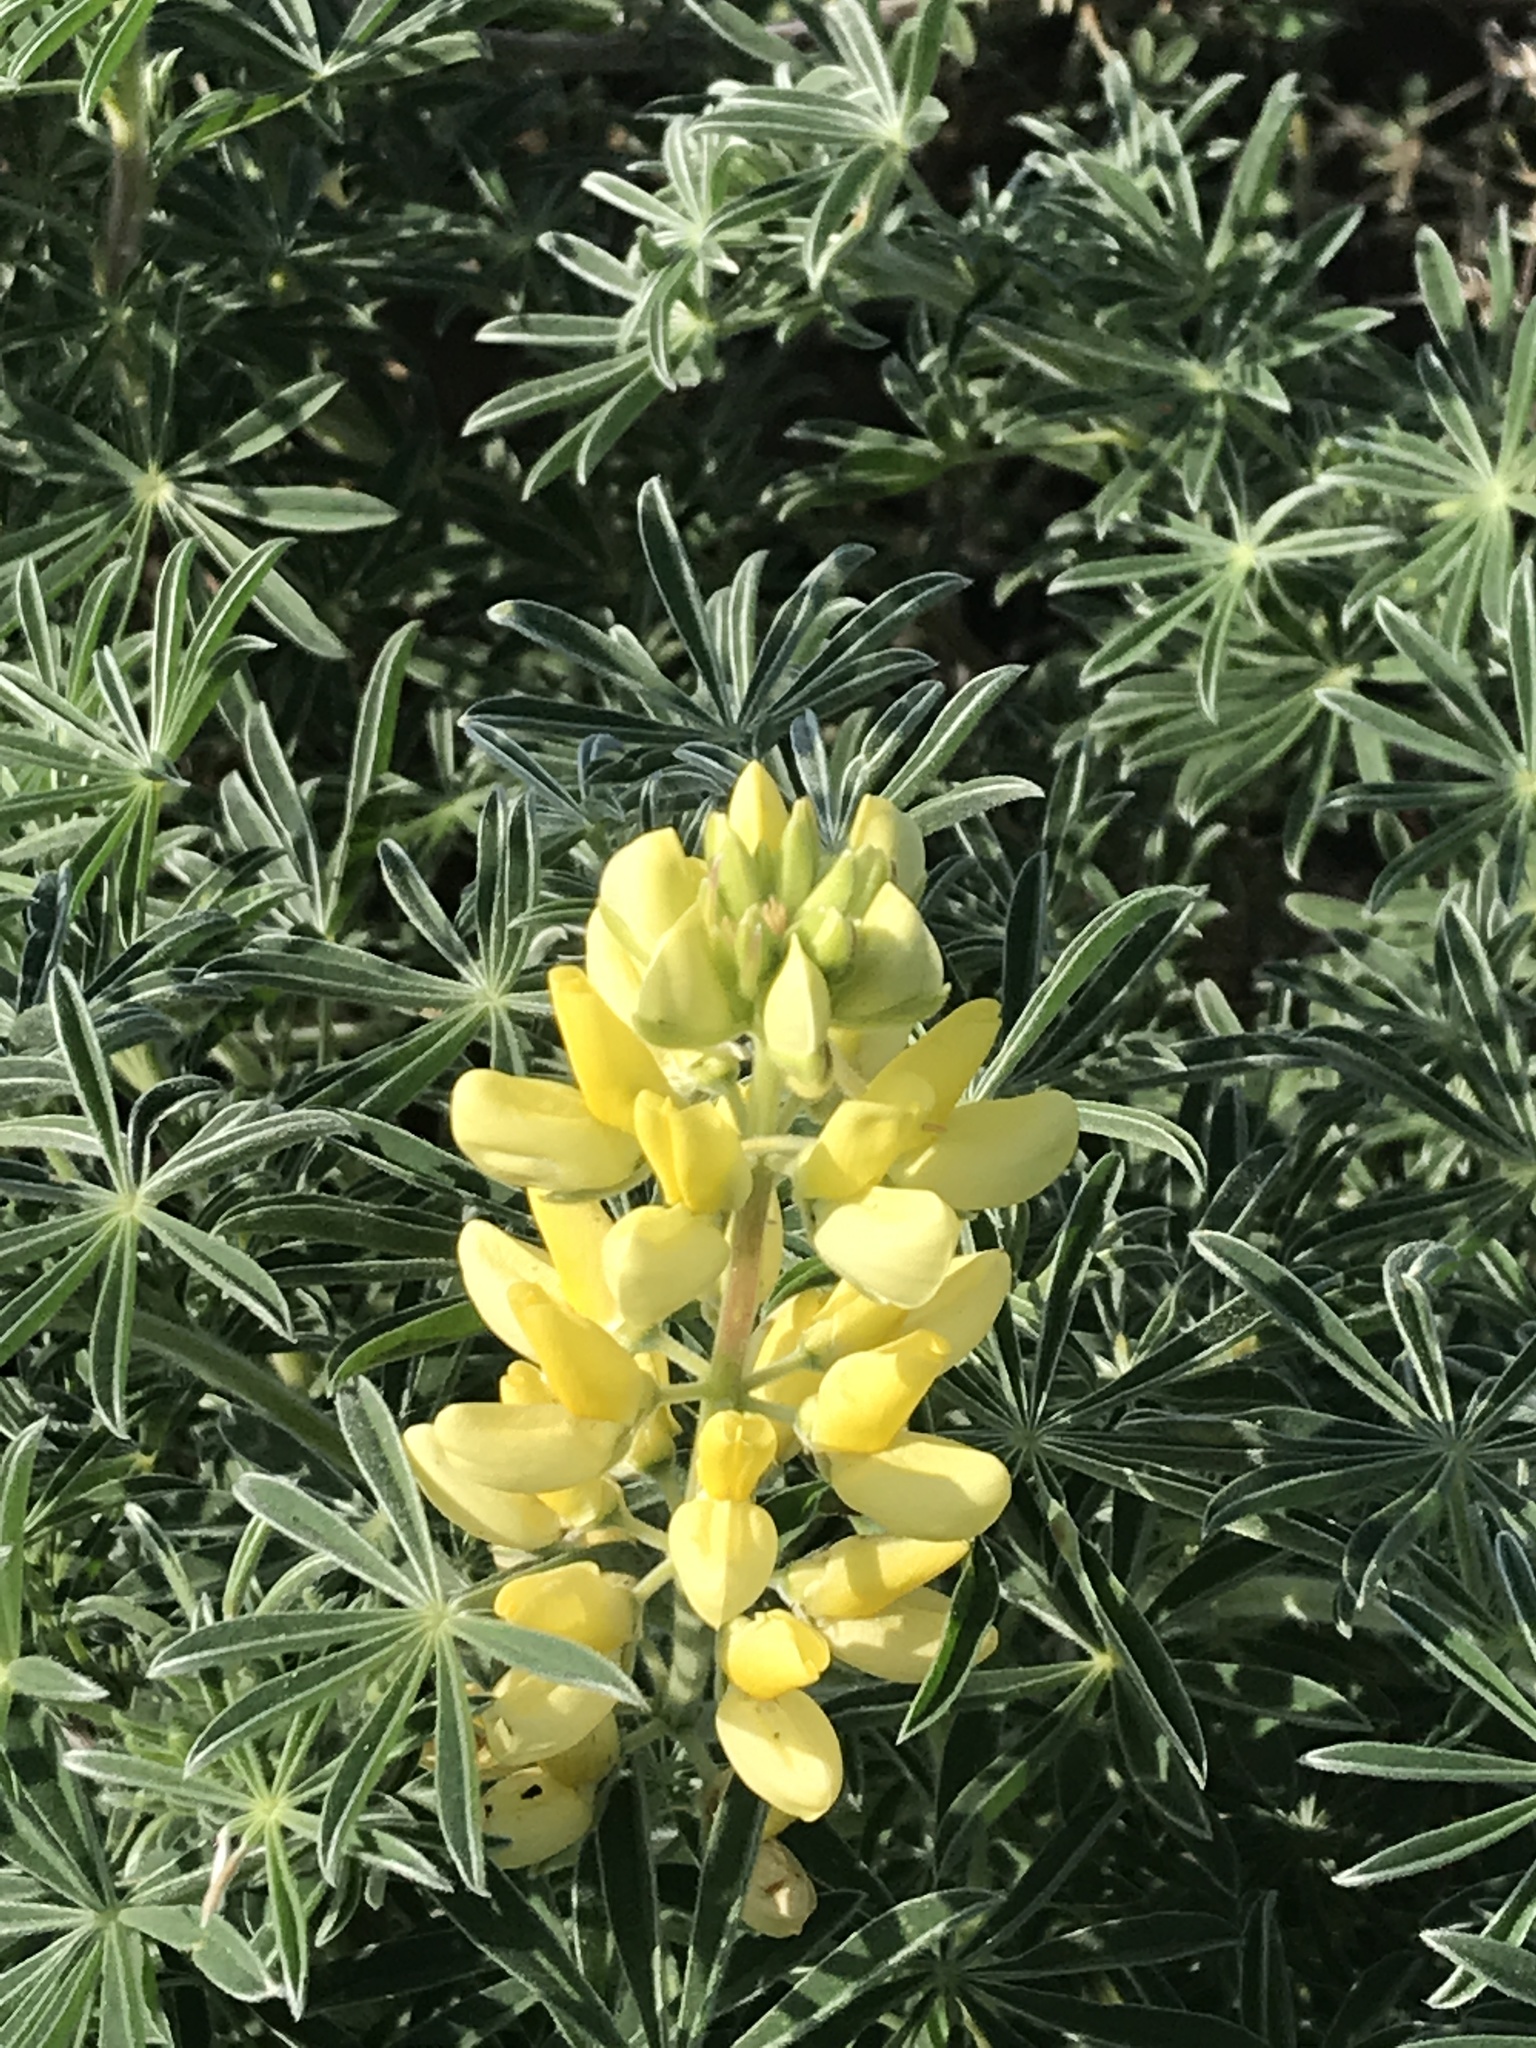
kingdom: Plantae
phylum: Tracheophyta
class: Magnoliopsida
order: Fabales
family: Fabaceae
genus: Lupinus
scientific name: Lupinus arboreus
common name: Yellow bush lupine
